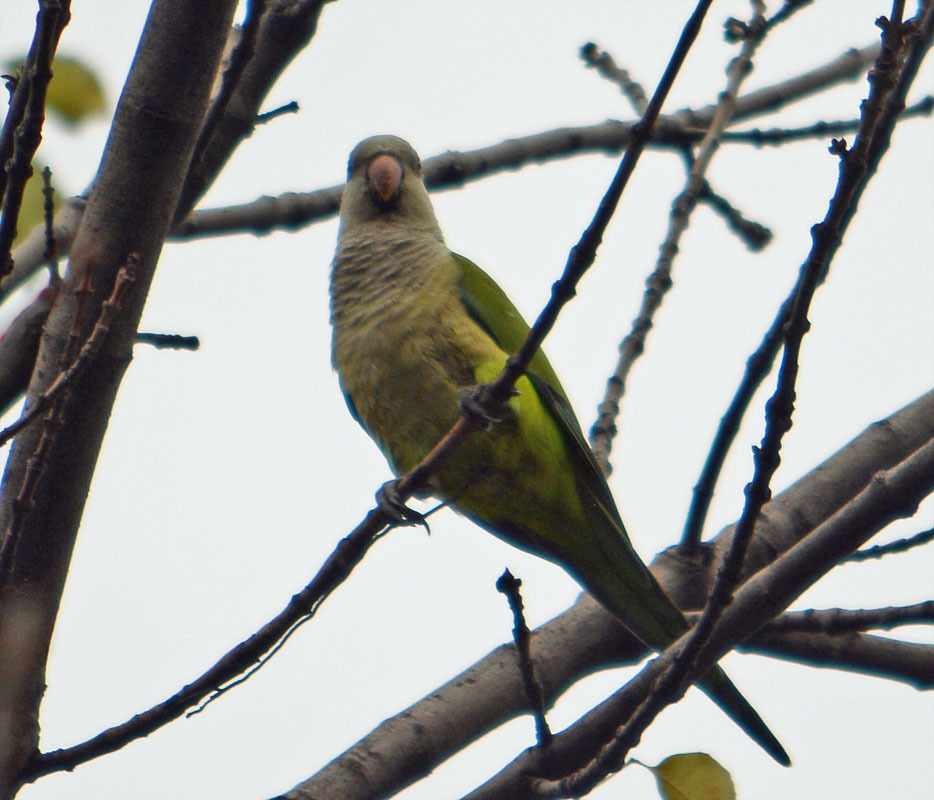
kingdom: Animalia
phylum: Chordata
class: Aves
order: Psittaciformes
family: Psittacidae
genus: Myiopsitta
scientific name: Myiopsitta monachus
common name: Monk parakeet
